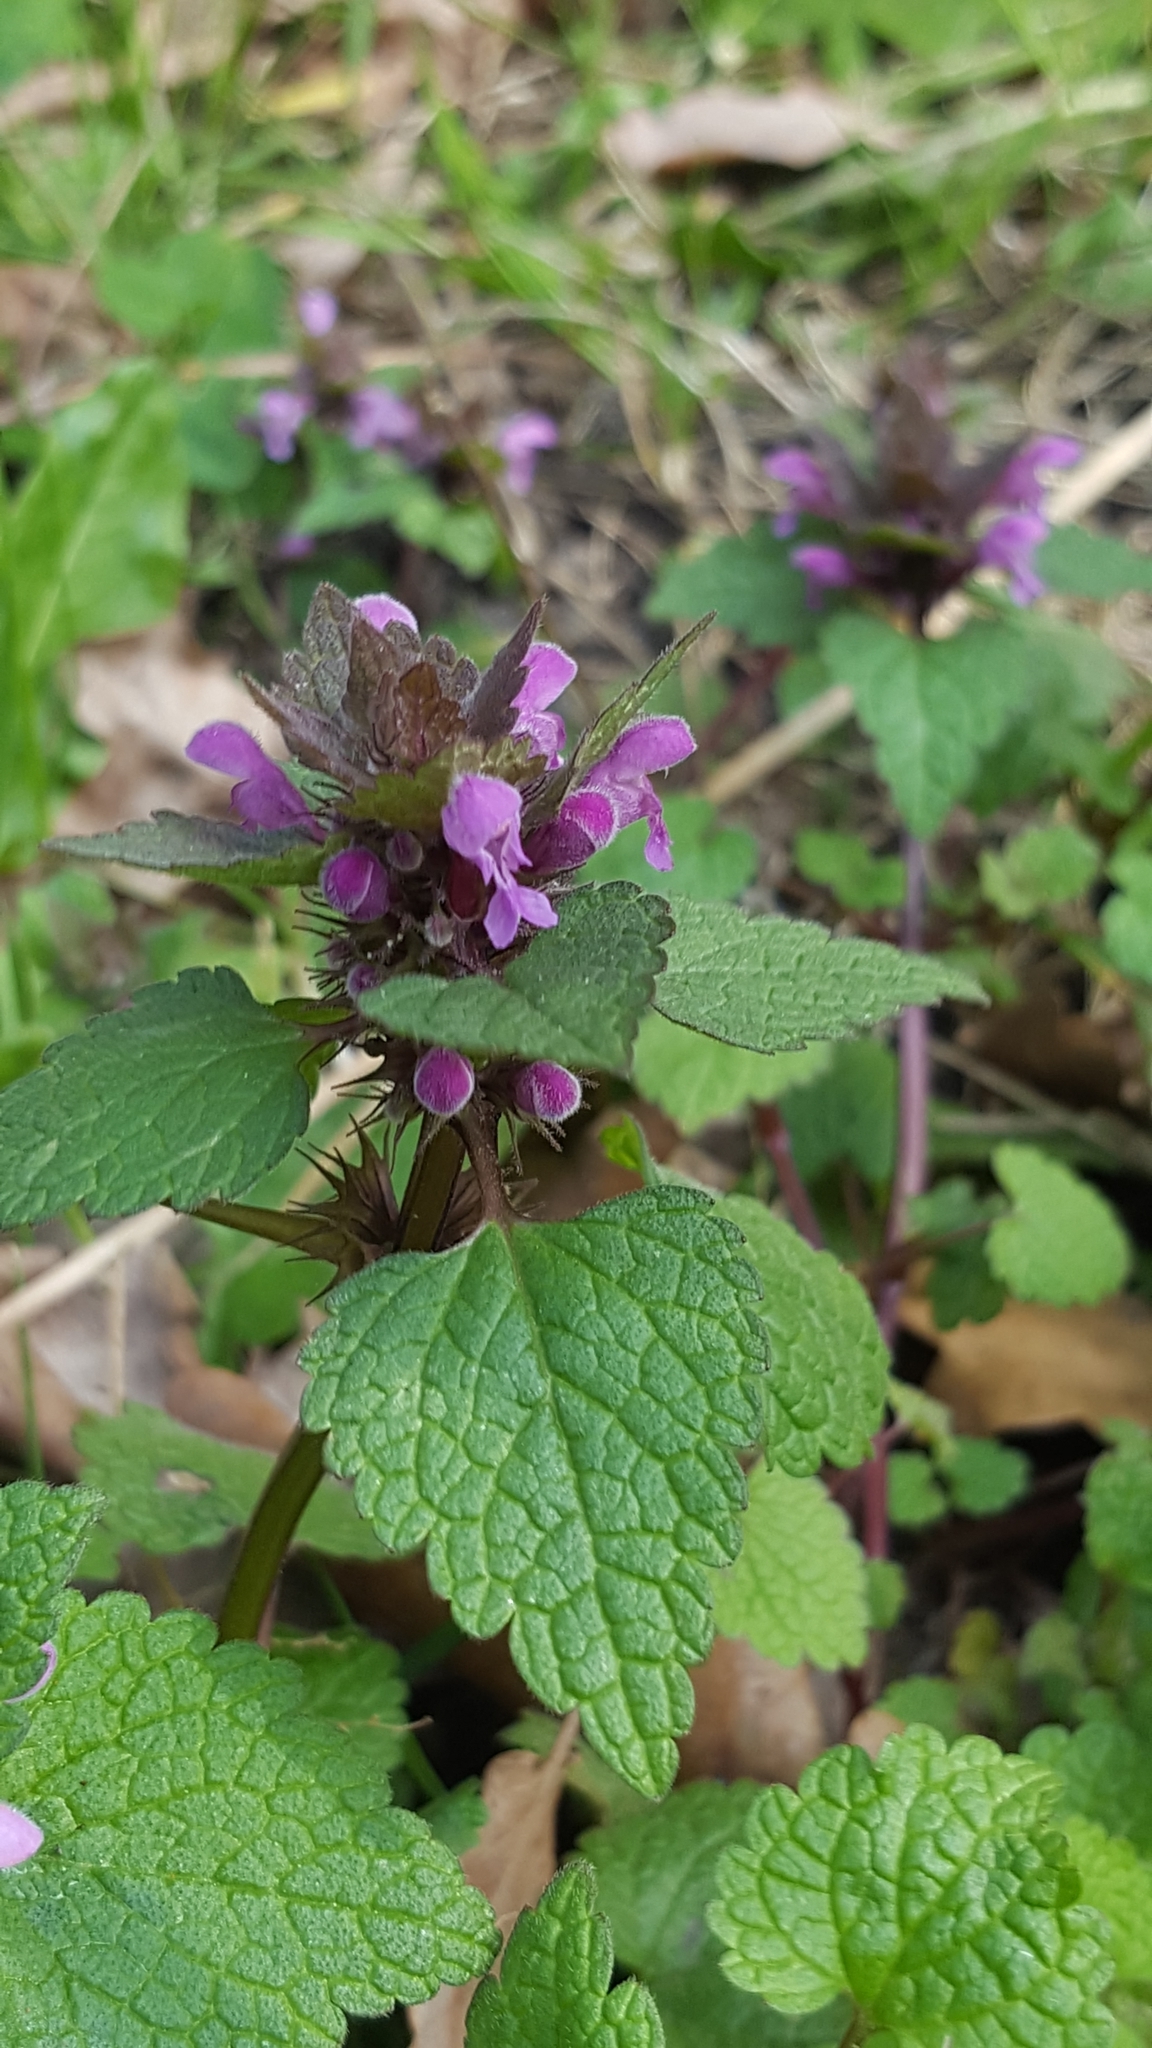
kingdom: Plantae
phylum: Tracheophyta
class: Magnoliopsida
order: Lamiales
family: Lamiaceae
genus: Lamium
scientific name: Lamium purpureum
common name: Red dead-nettle
